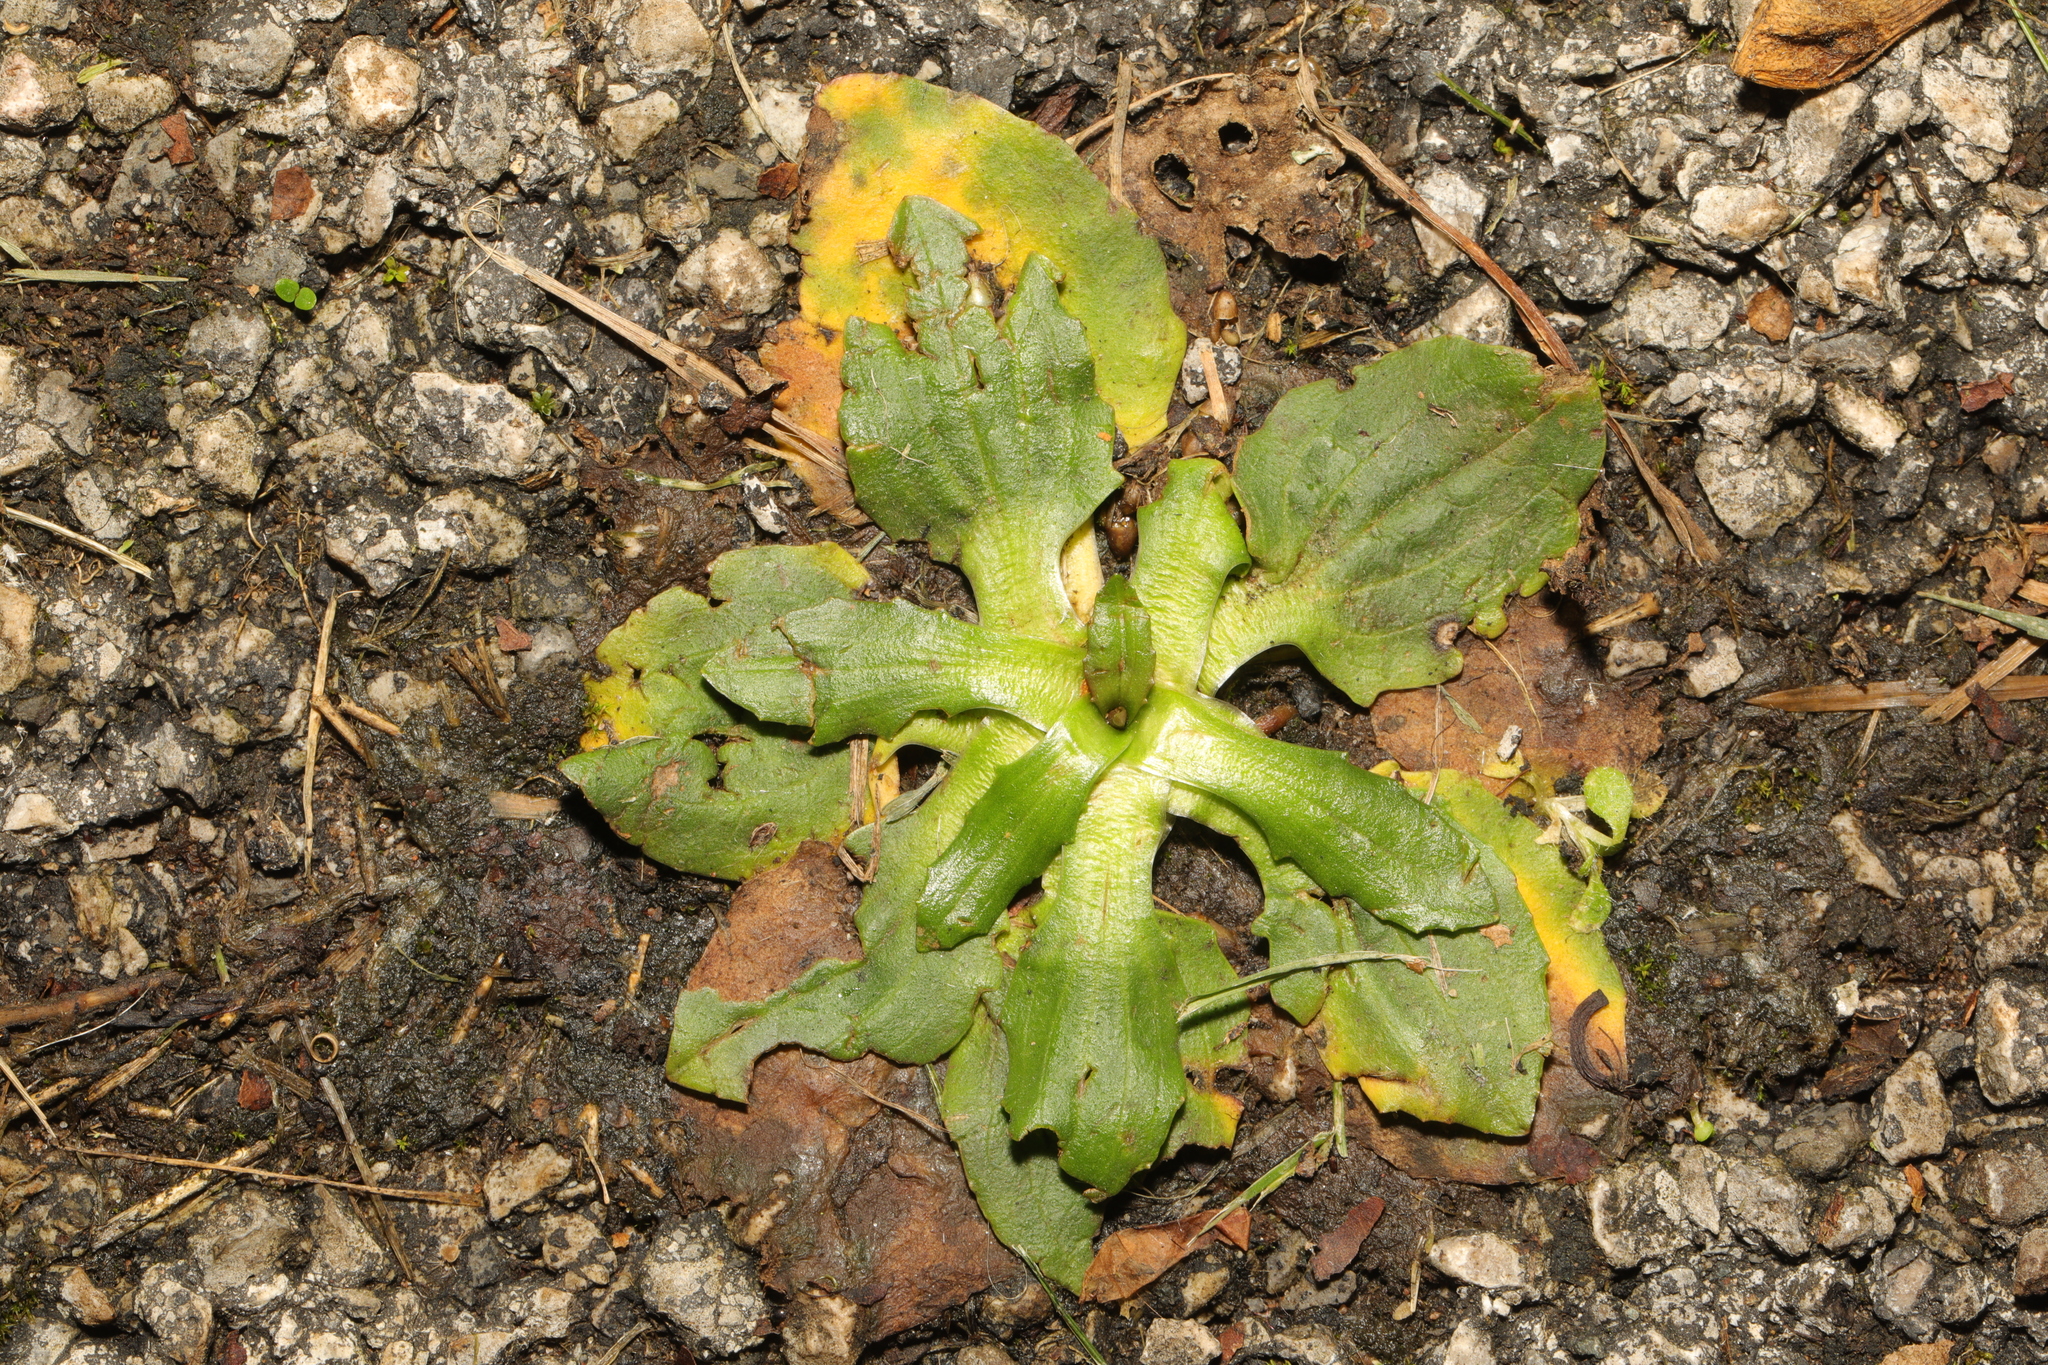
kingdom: Plantae
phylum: Tracheophyta
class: Magnoliopsida
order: Lamiales
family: Plantaginaceae
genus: Plantago
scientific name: Plantago major
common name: Common plantain
